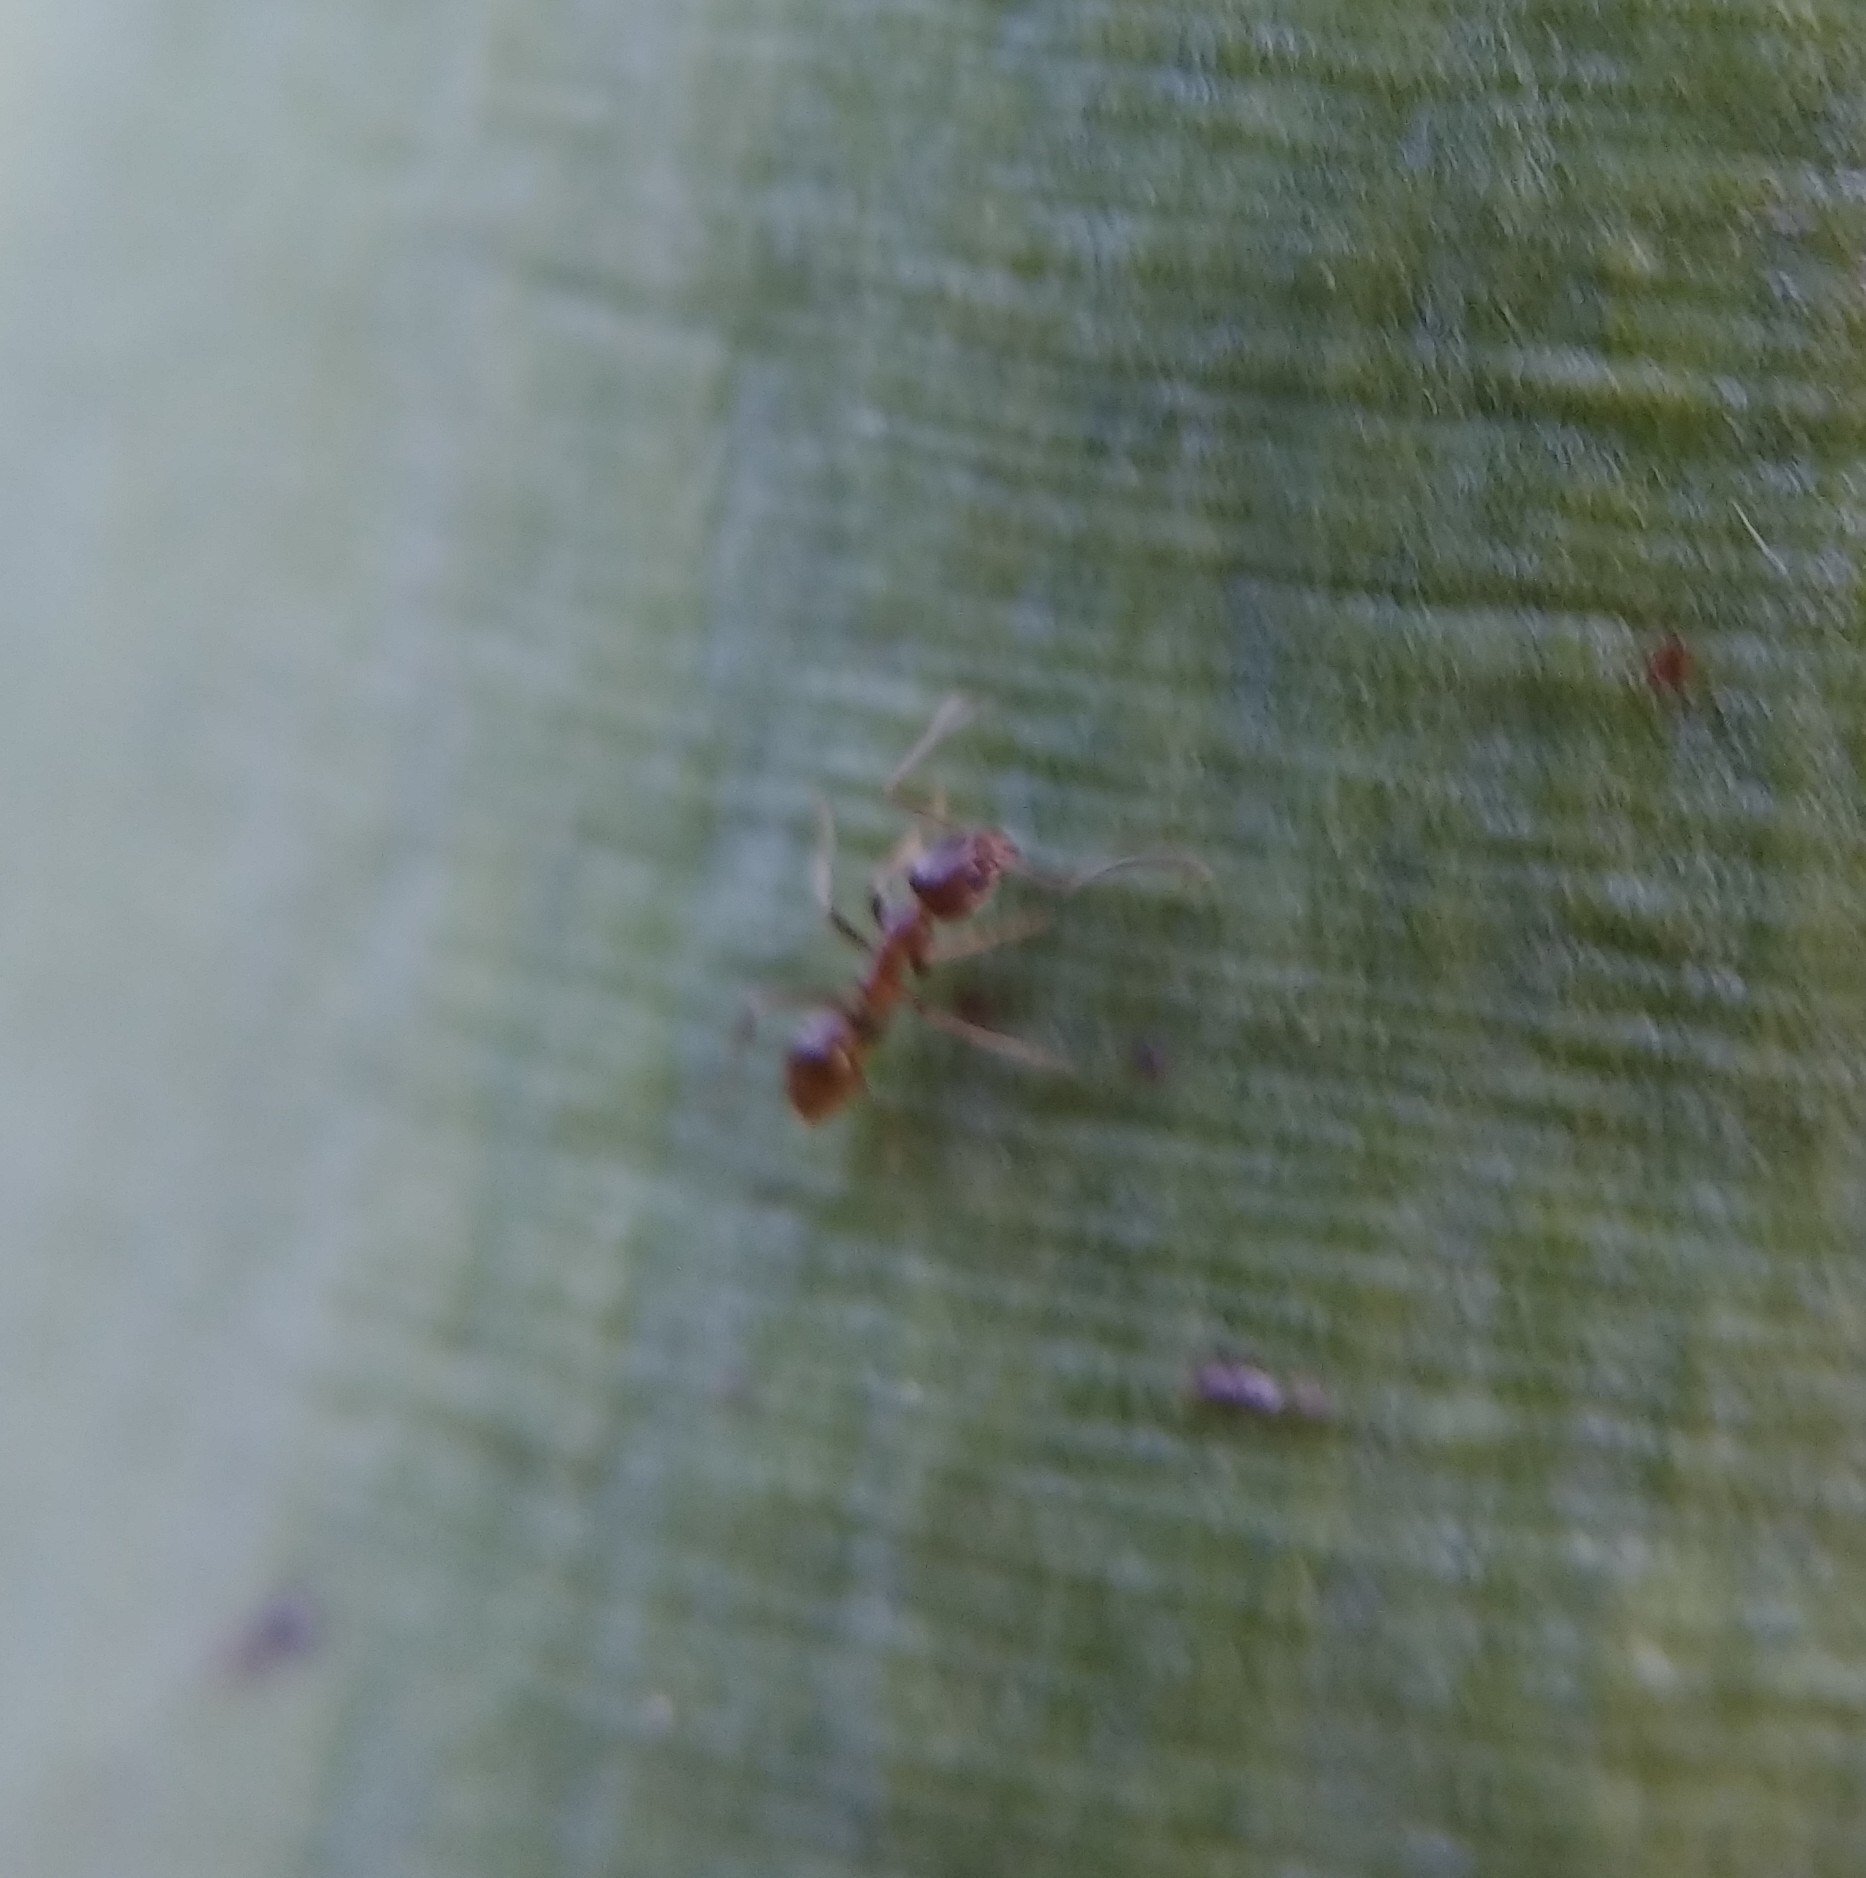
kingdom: Animalia
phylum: Arthropoda
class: Insecta
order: Hymenoptera
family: Formicidae
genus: Linepithema
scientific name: Linepithema humile
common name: Argentine ant
